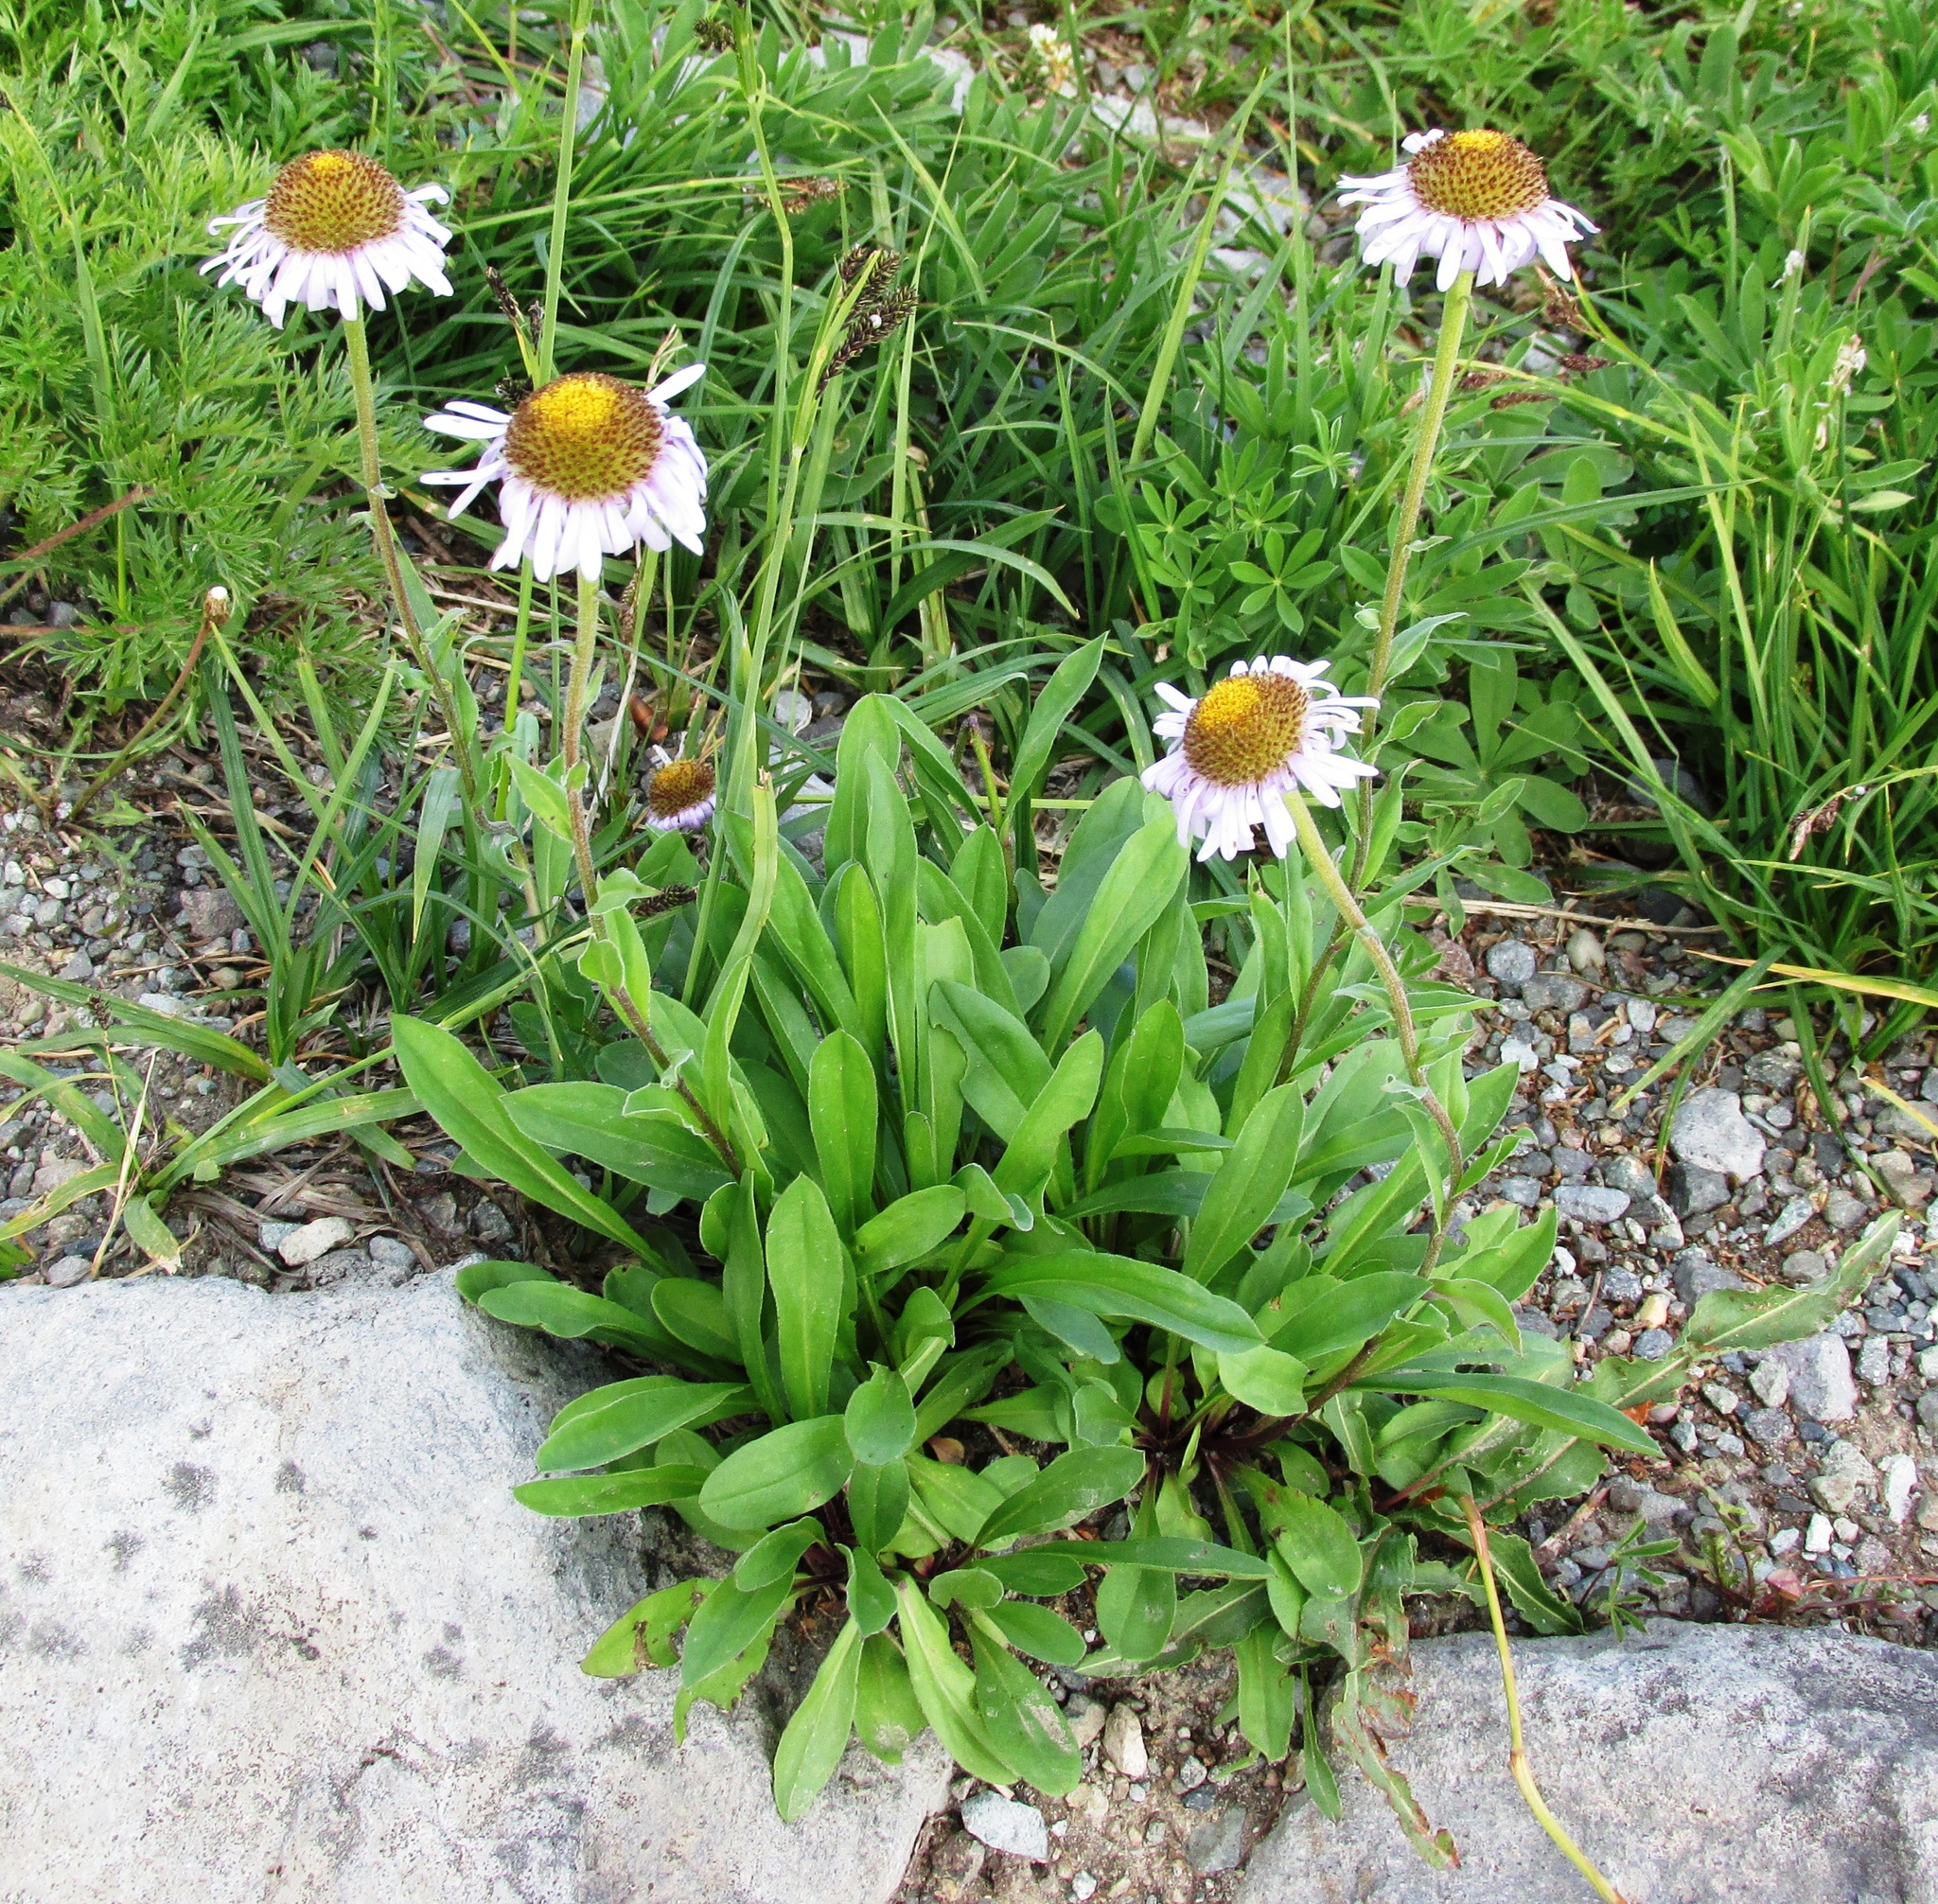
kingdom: Plantae
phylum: Tracheophyta
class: Magnoliopsida
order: Asterales
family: Asteraceae
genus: Erigeron
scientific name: Erigeron glacialis
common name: Subalpine fleabane
